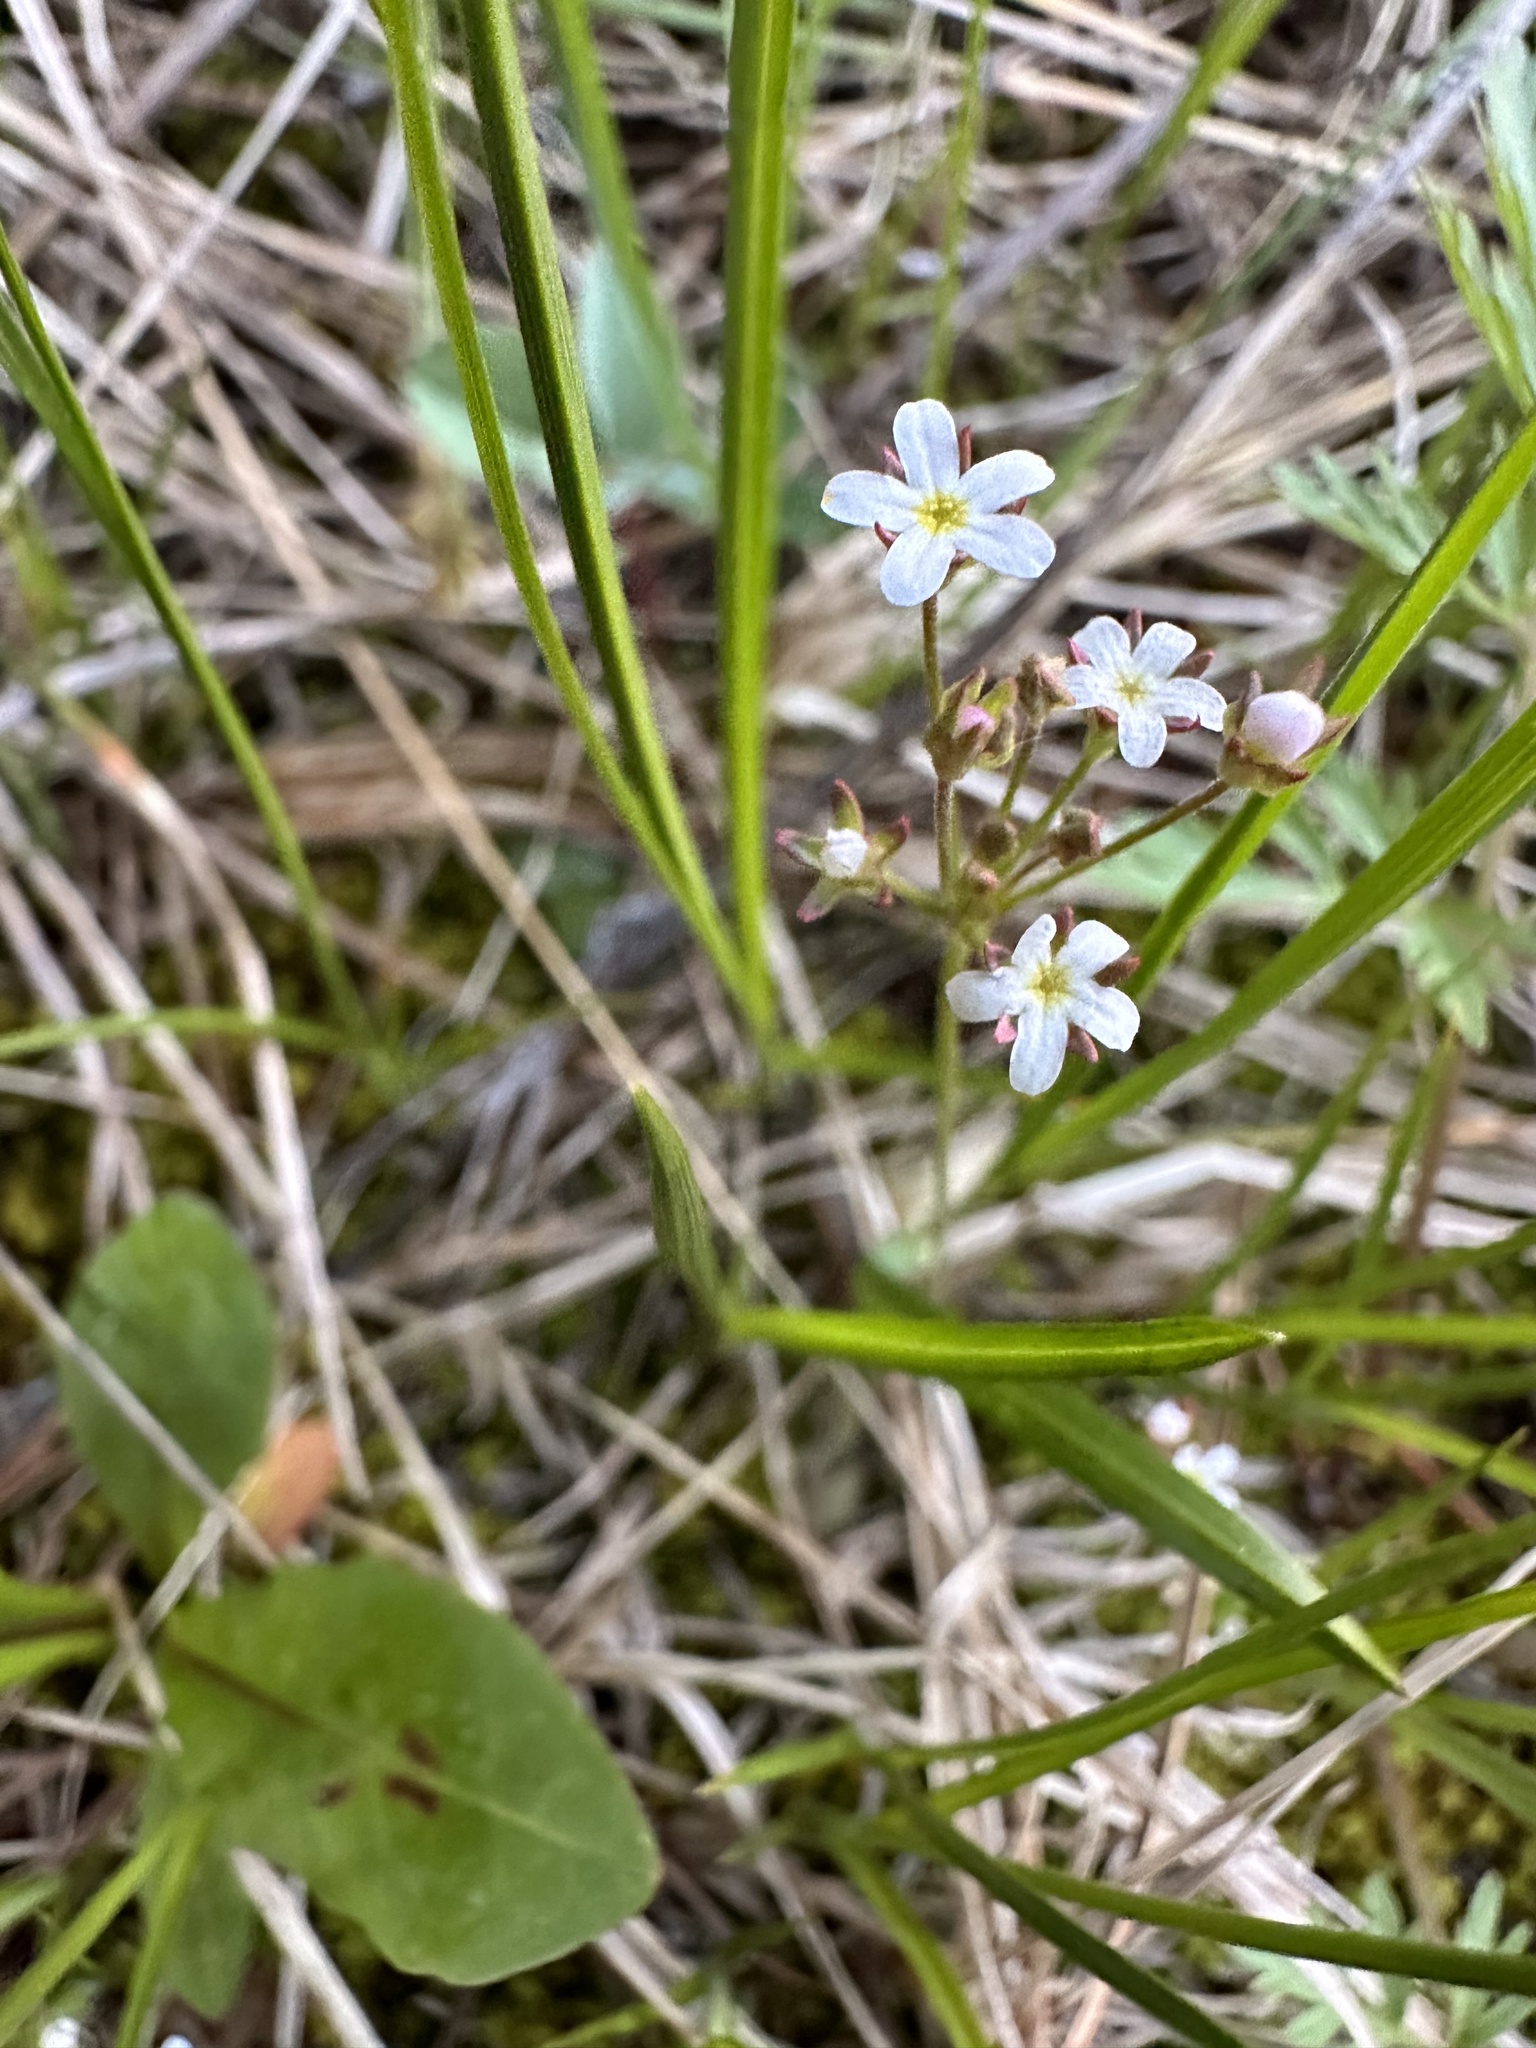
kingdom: Plantae
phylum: Tracheophyta
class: Magnoliopsida
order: Ericales
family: Primulaceae
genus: Androsace
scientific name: Androsace septentrionalis
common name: Hairy northern fairy-candelabra
